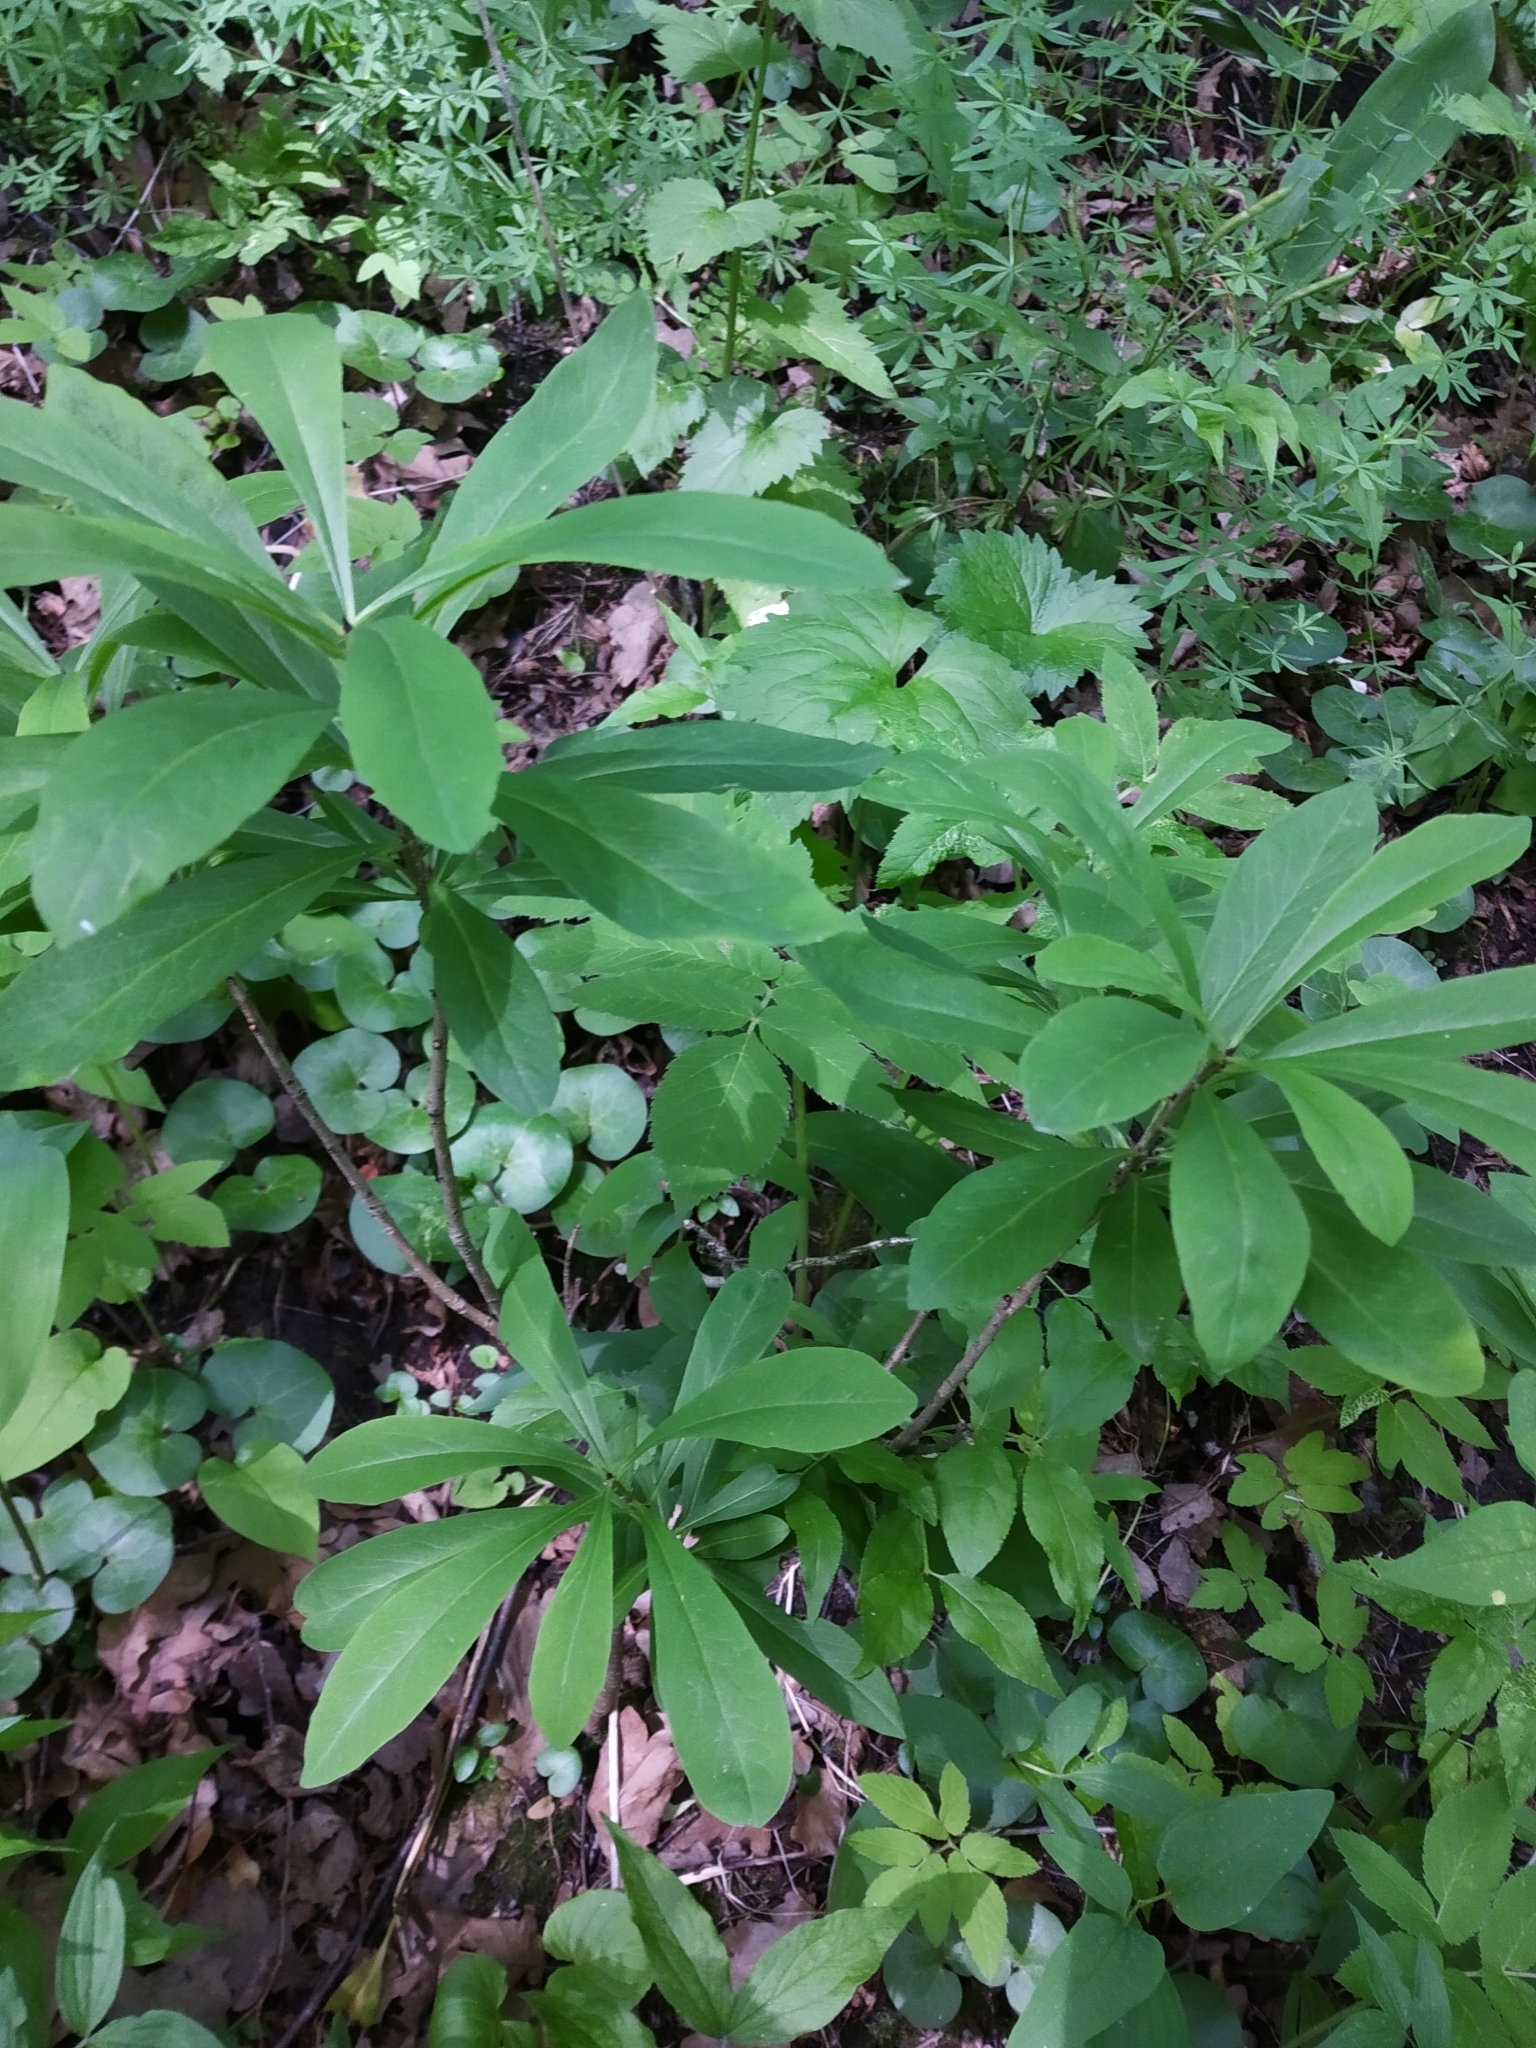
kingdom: Plantae
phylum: Tracheophyta
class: Magnoliopsida
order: Malvales
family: Thymelaeaceae
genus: Daphne
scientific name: Daphne mezereum
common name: Mezereon
